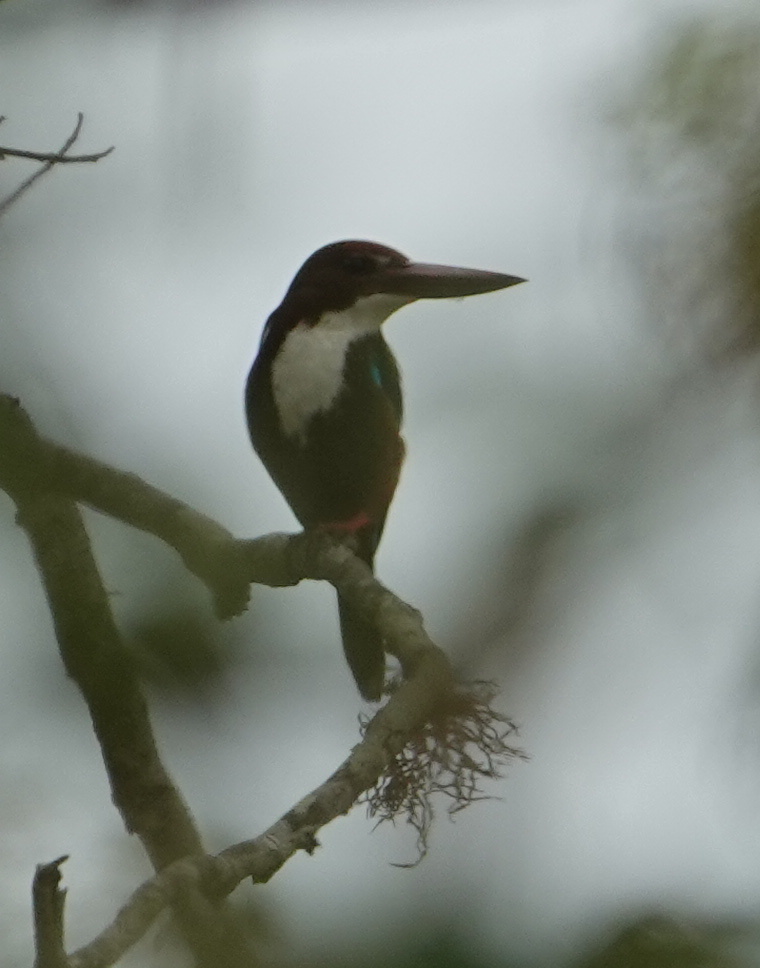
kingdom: Animalia
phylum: Chordata
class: Aves
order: Coraciiformes
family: Alcedinidae
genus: Halcyon
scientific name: Halcyon smyrnensis
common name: White-throated kingfisher
